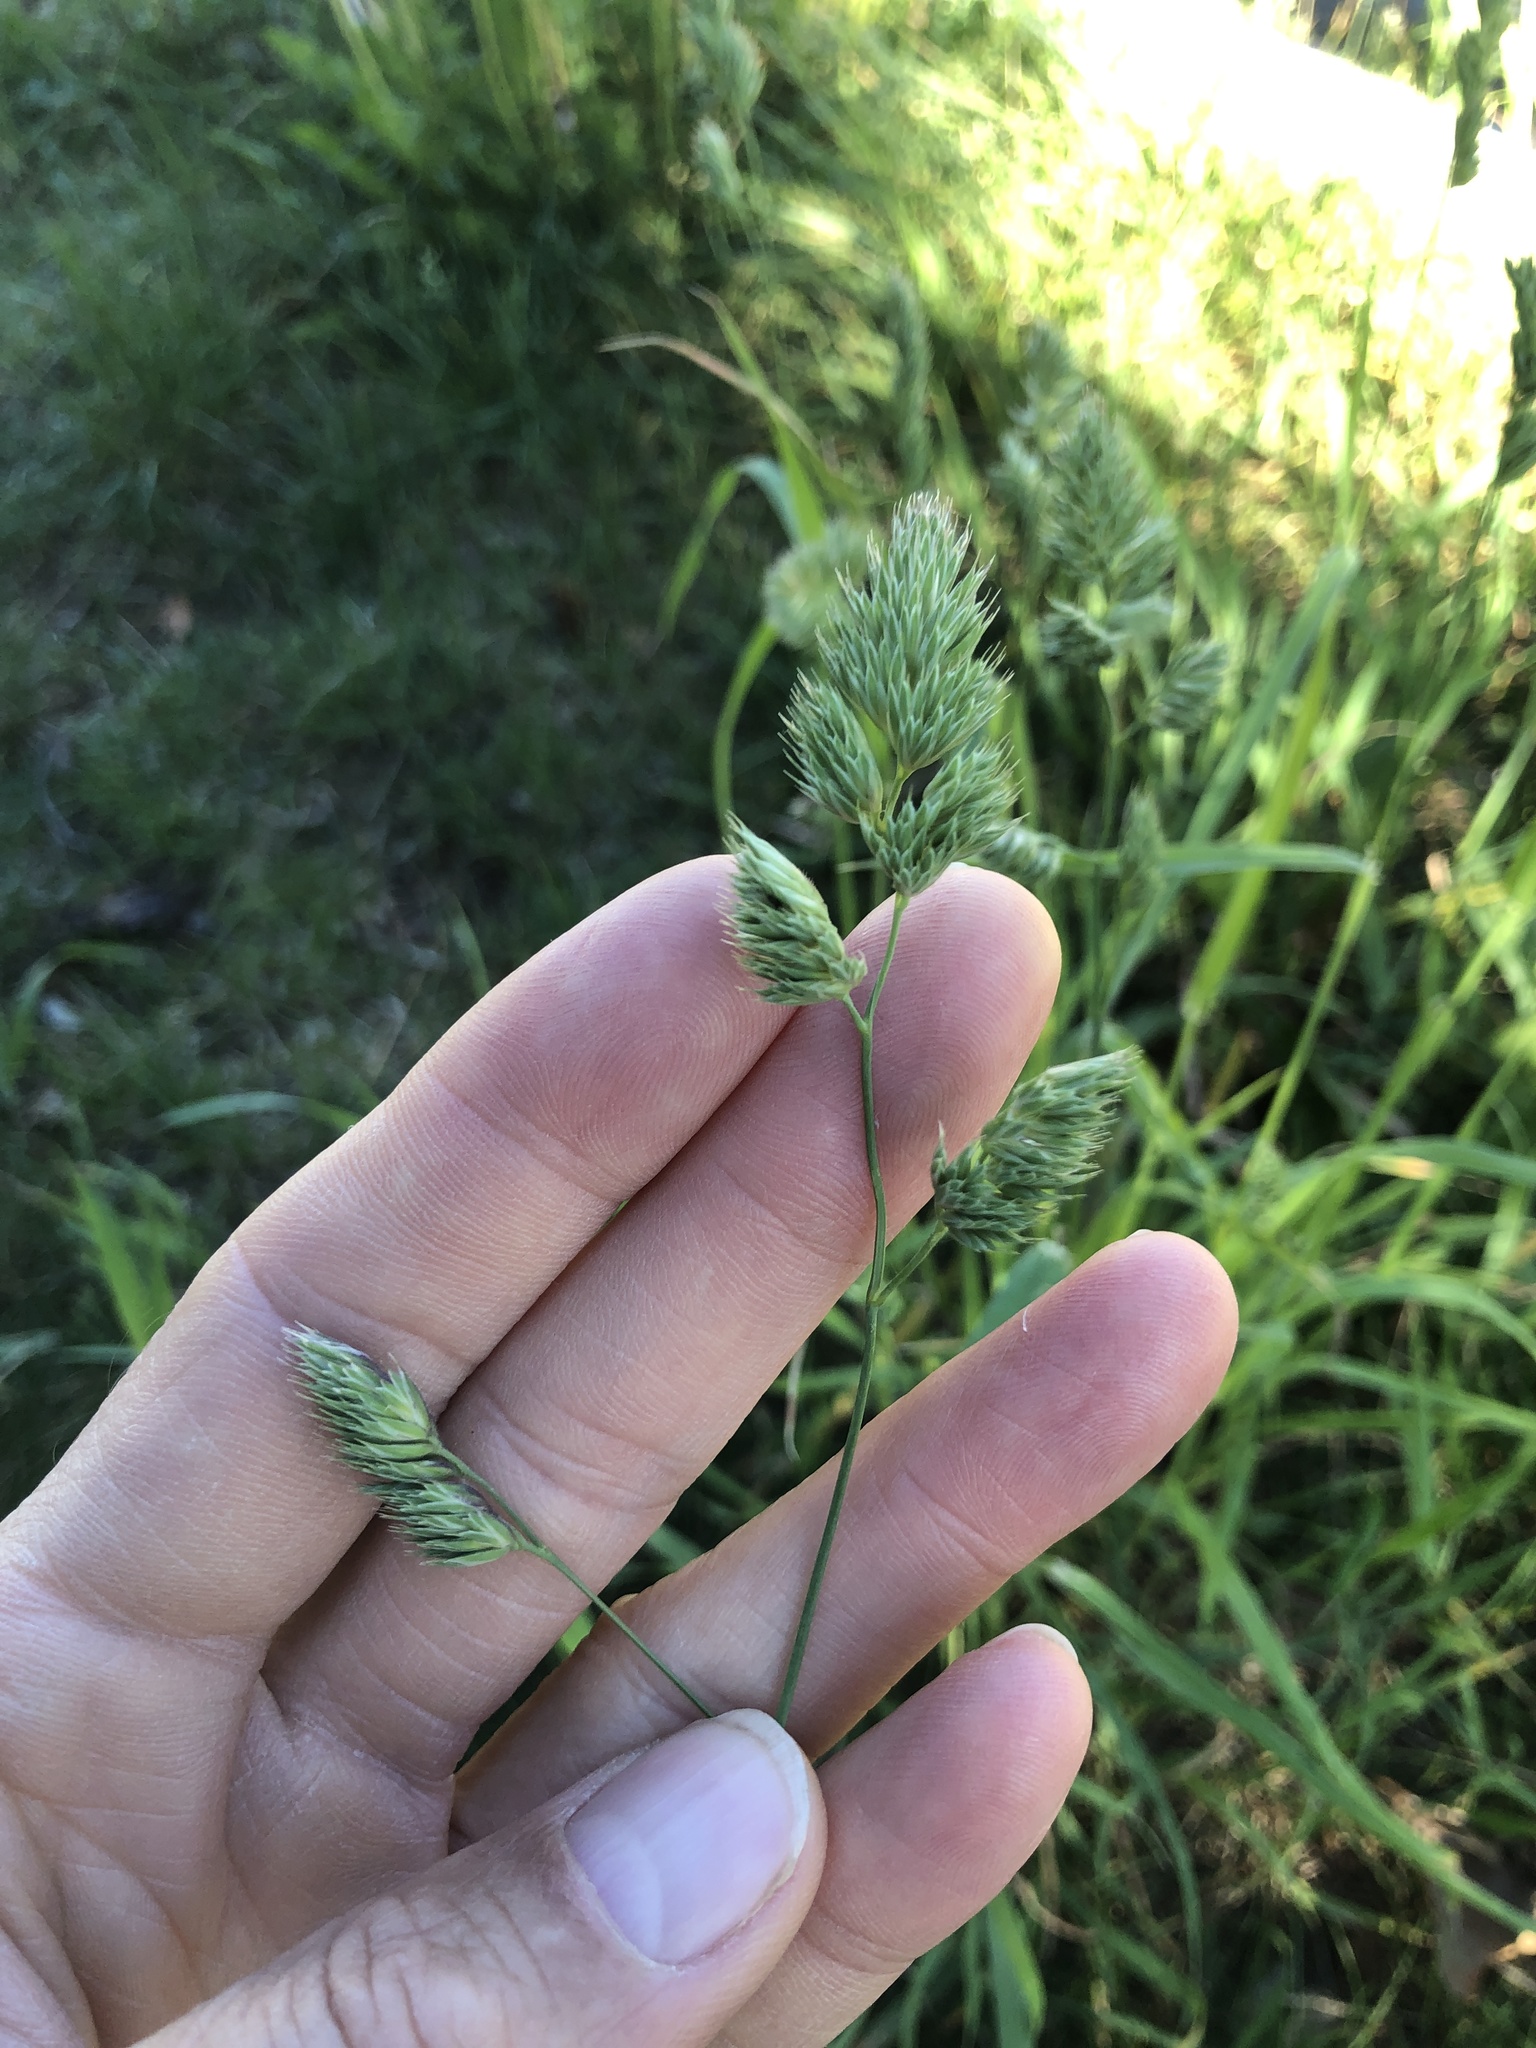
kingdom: Plantae
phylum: Tracheophyta
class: Liliopsida
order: Poales
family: Poaceae
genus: Dactylis
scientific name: Dactylis glomerata
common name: Orchardgrass
